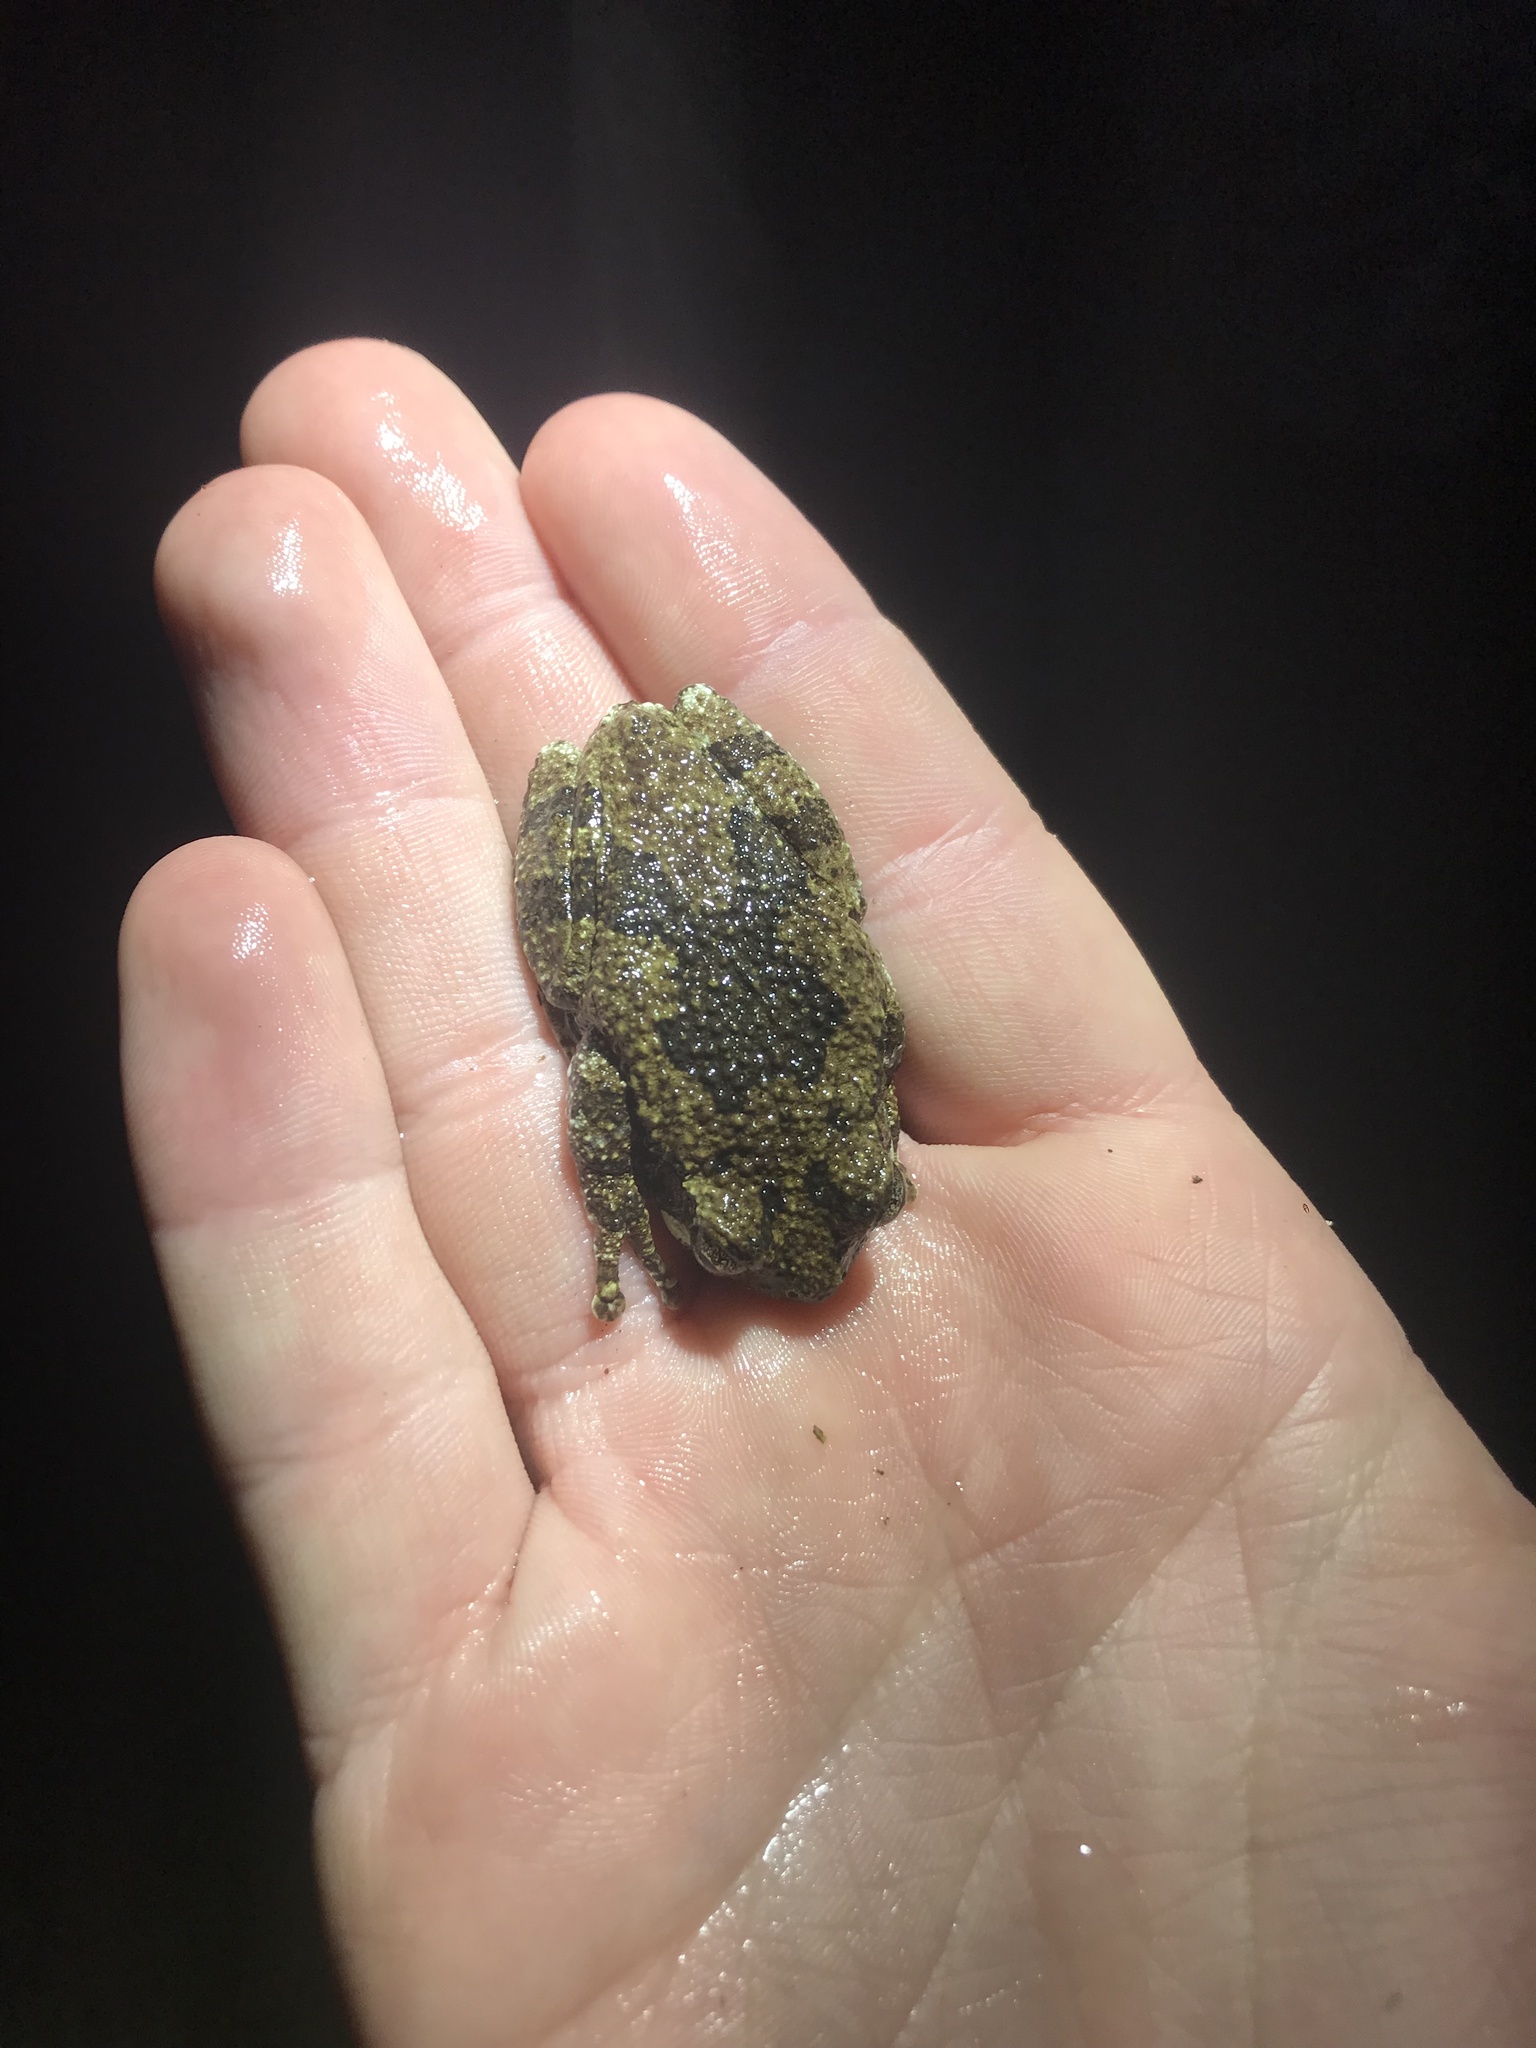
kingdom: Animalia
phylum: Chordata
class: Amphibia
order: Anura
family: Hylidae
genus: Dryophytes
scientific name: Dryophytes chrysoscelis
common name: Cope's gray treefrog
